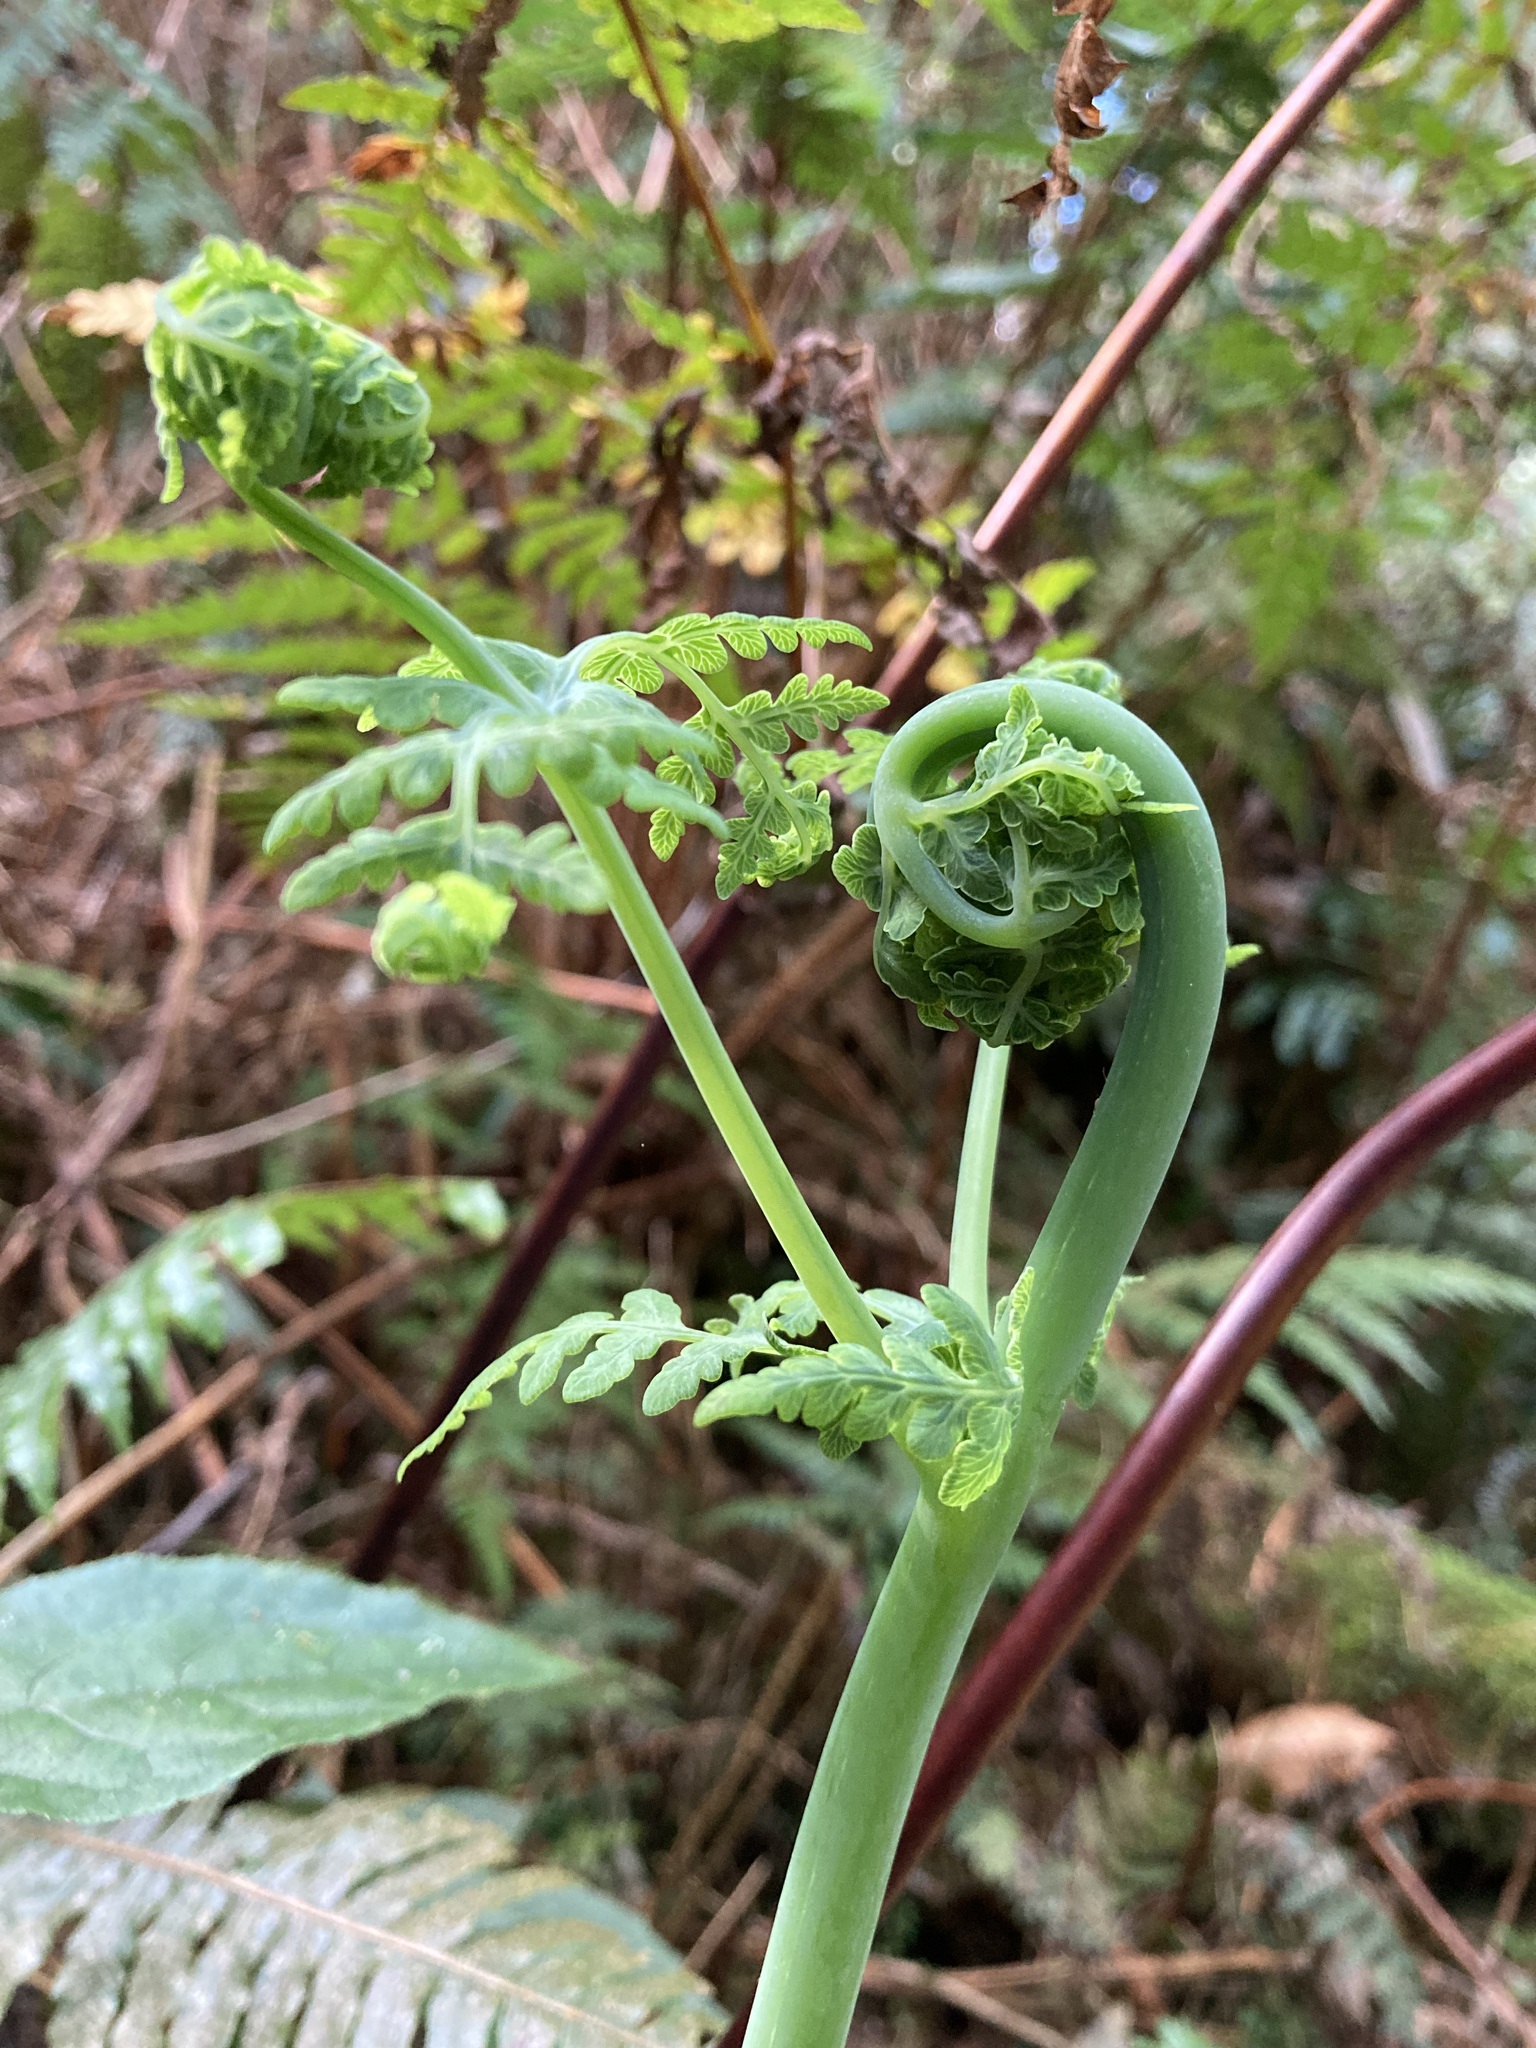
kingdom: Plantae
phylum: Tracheophyta
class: Polypodiopsida
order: Polypodiales
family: Dennstaedtiaceae
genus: Histiopteris
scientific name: Histiopteris incisa
